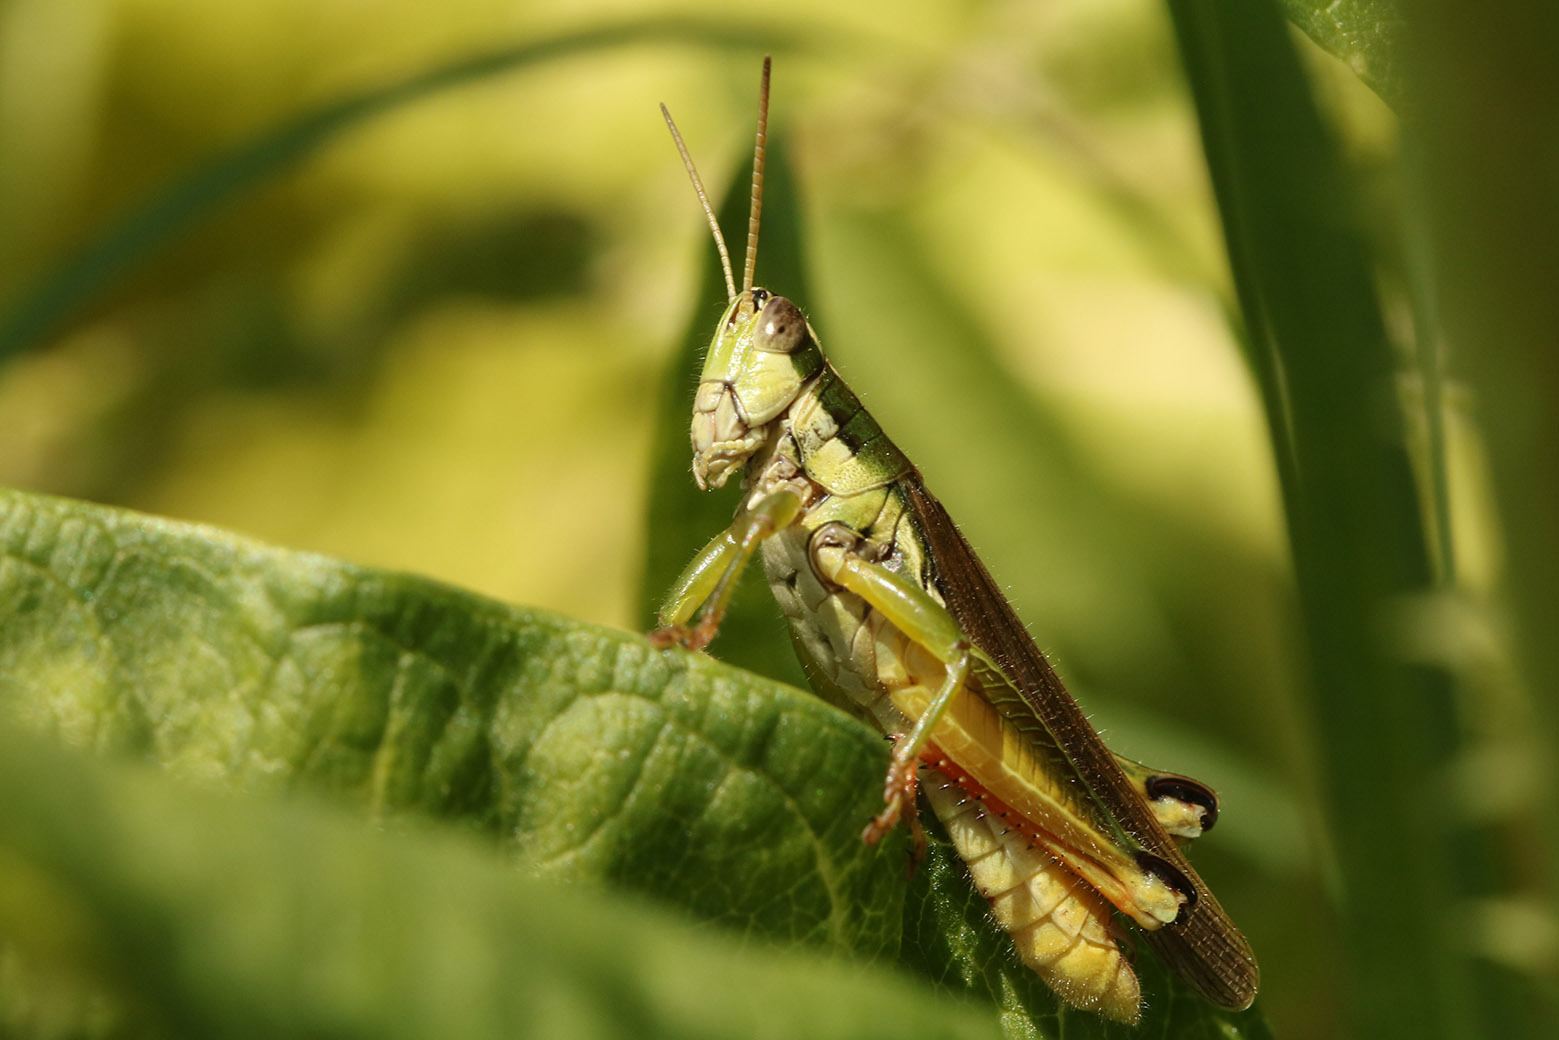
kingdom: Animalia
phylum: Arthropoda
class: Insecta
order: Orthoptera
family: Acrididae
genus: Scotussa
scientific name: Scotussa cliens
